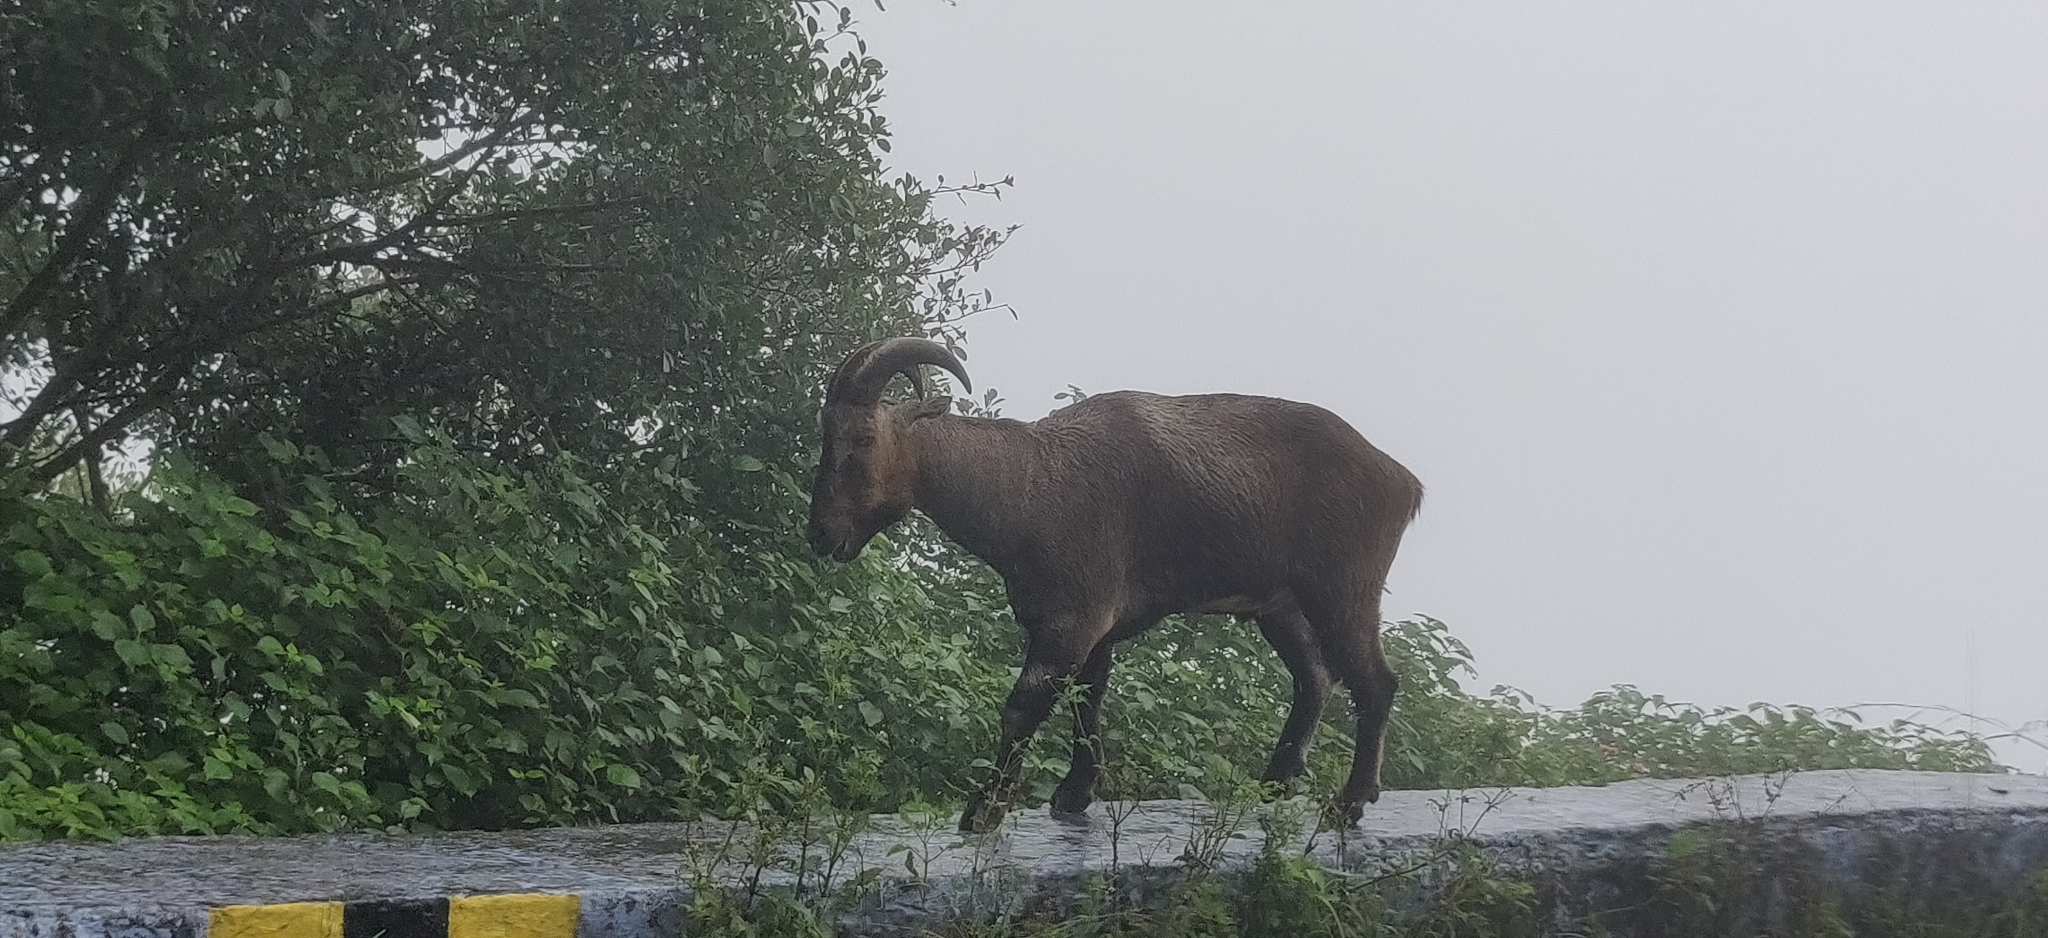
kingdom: Animalia
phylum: Chordata
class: Mammalia
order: Artiodactyla
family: Bovidae
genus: Hemitragus
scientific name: Hemitragus hylocrius
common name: Nilgiri tahr
